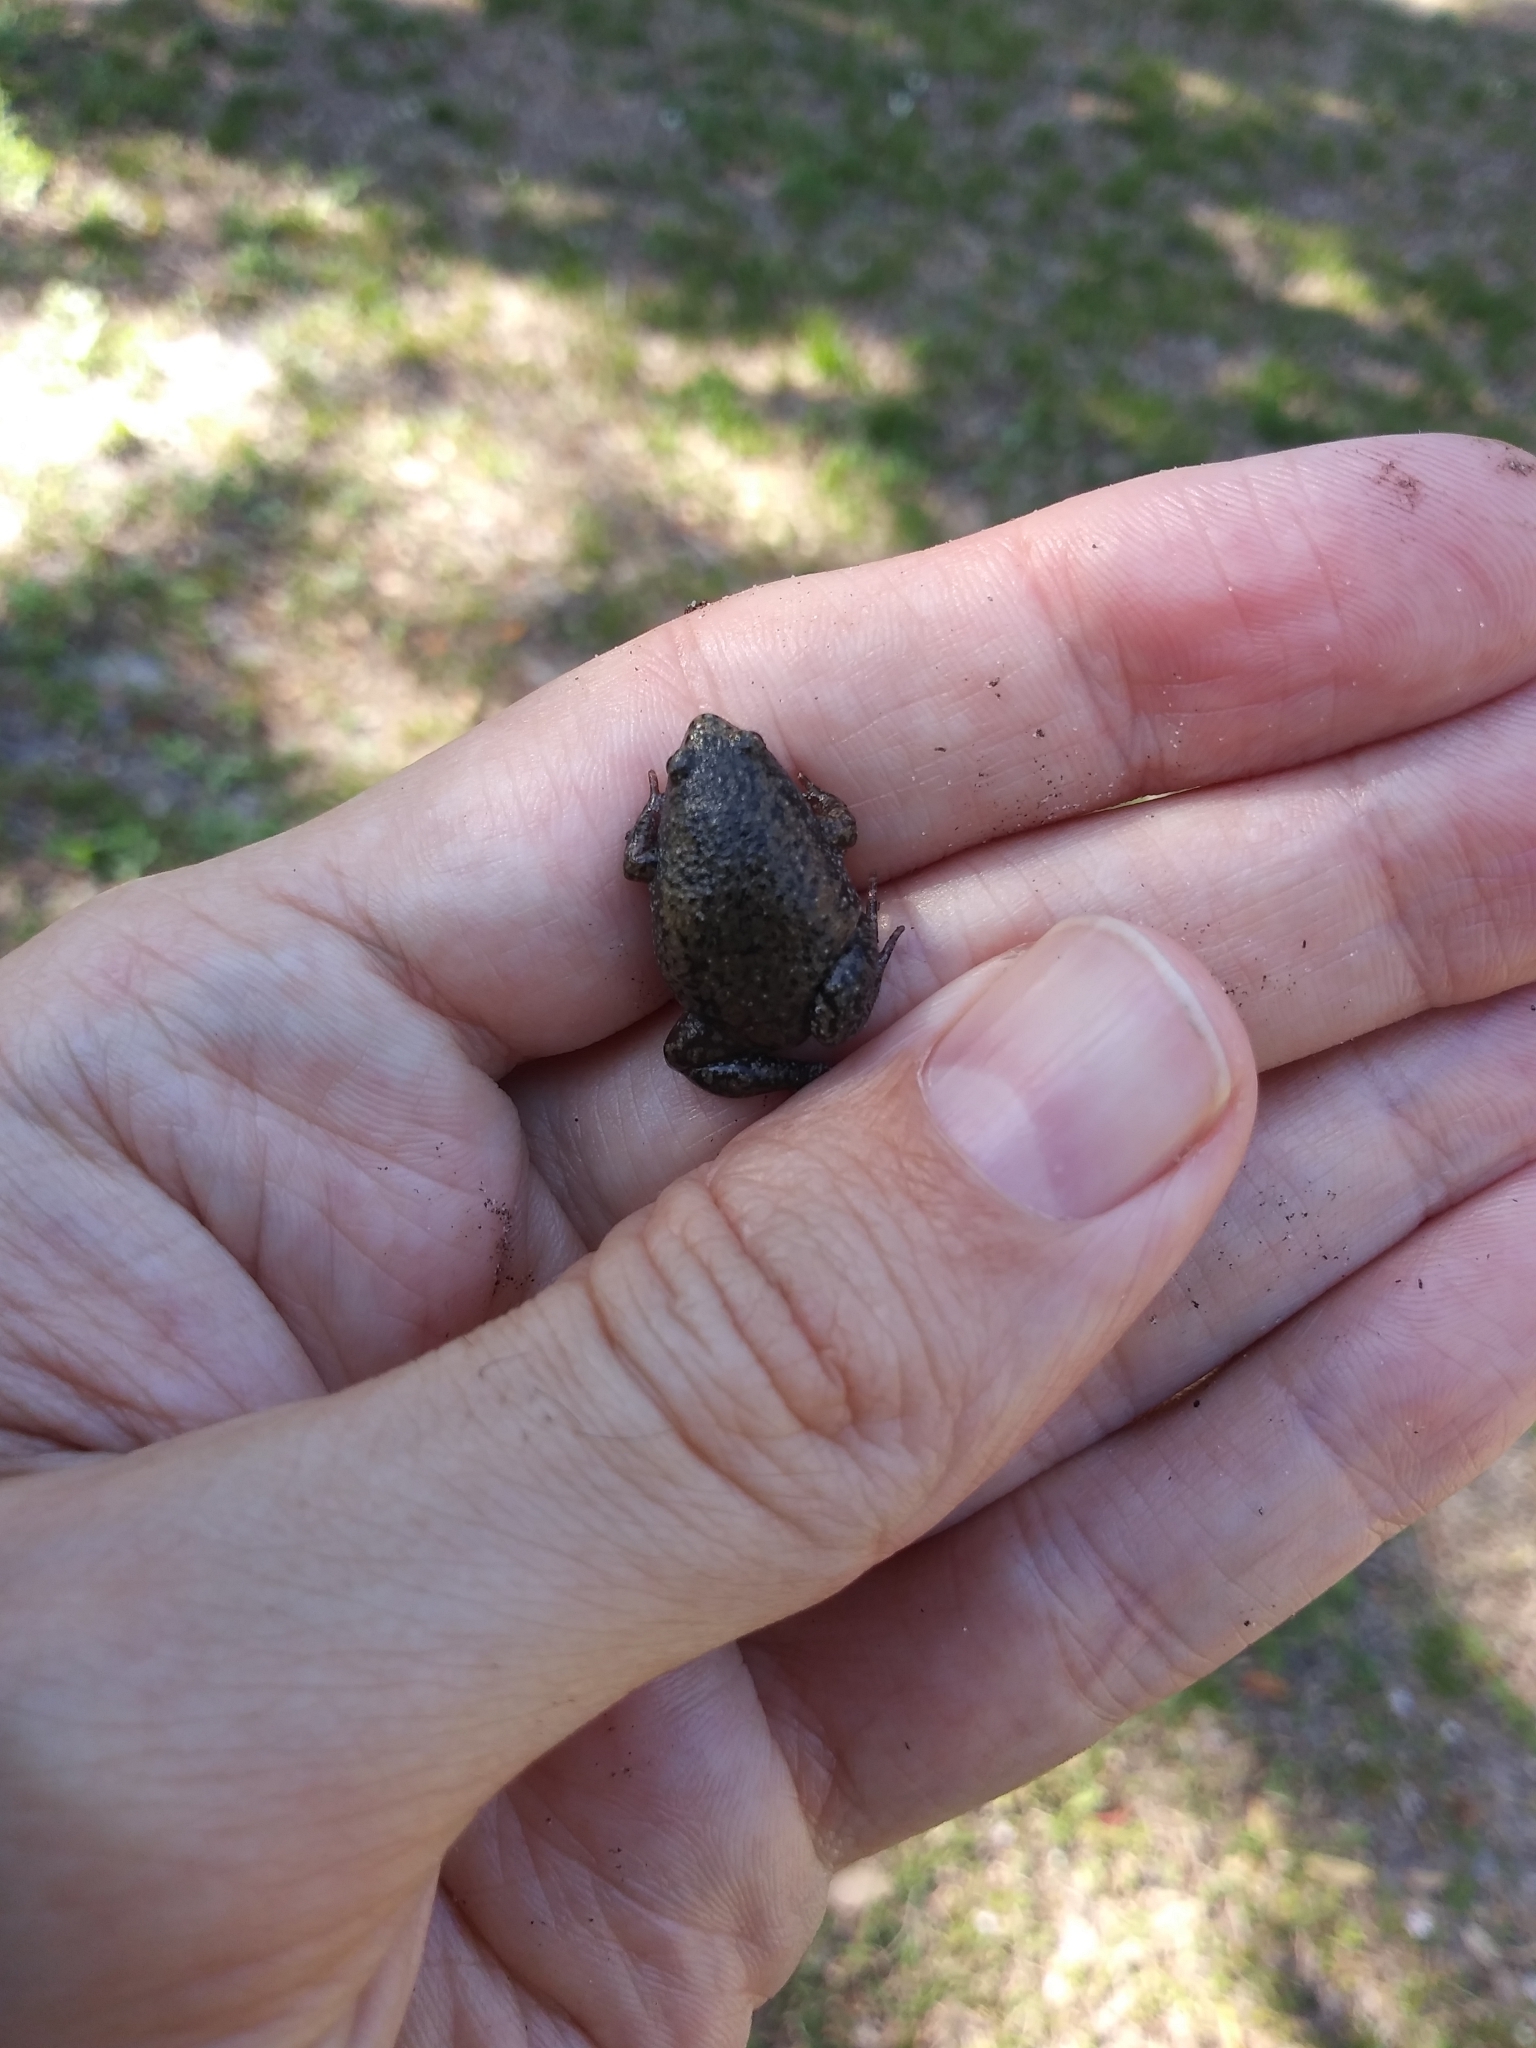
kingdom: Animalia
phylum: Chordata
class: Amphibia
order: Anura
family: Microhylidae
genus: Gastrophryne
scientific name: Gastrophryne carolinensis
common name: Eastern narrowmouth toad
